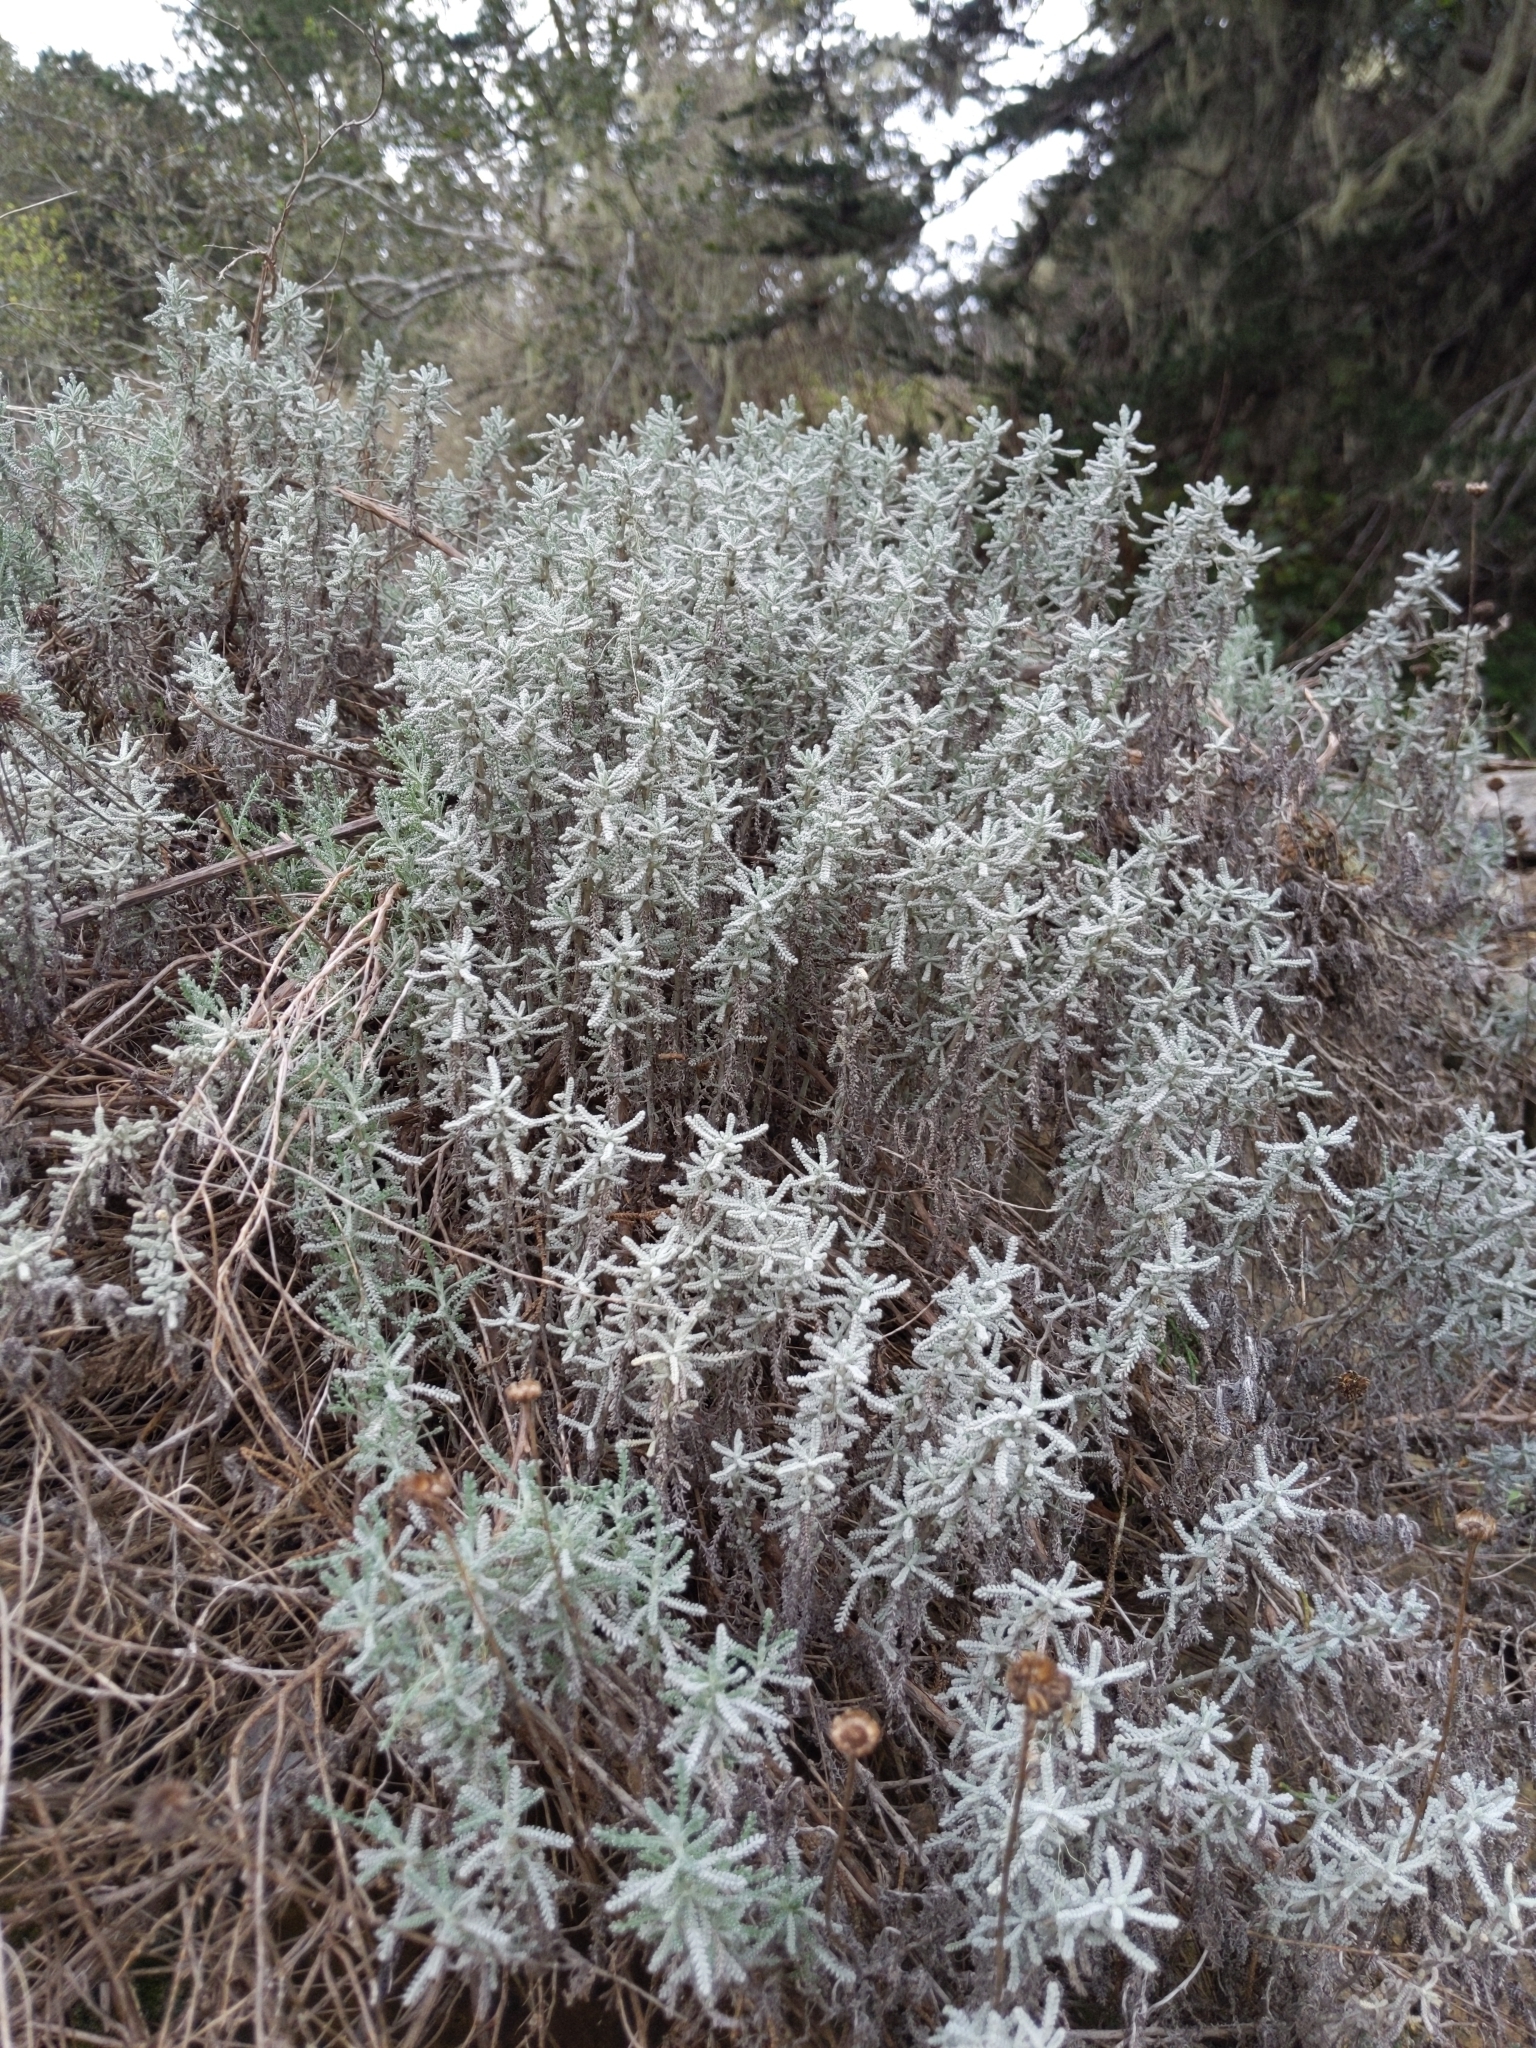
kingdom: Plantae
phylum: Tracheophyta
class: Magnoliopsida
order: Asterales
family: Asteraceae
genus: Santolina
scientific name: Santolina chamaecyparissus
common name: Lavender-cotton
